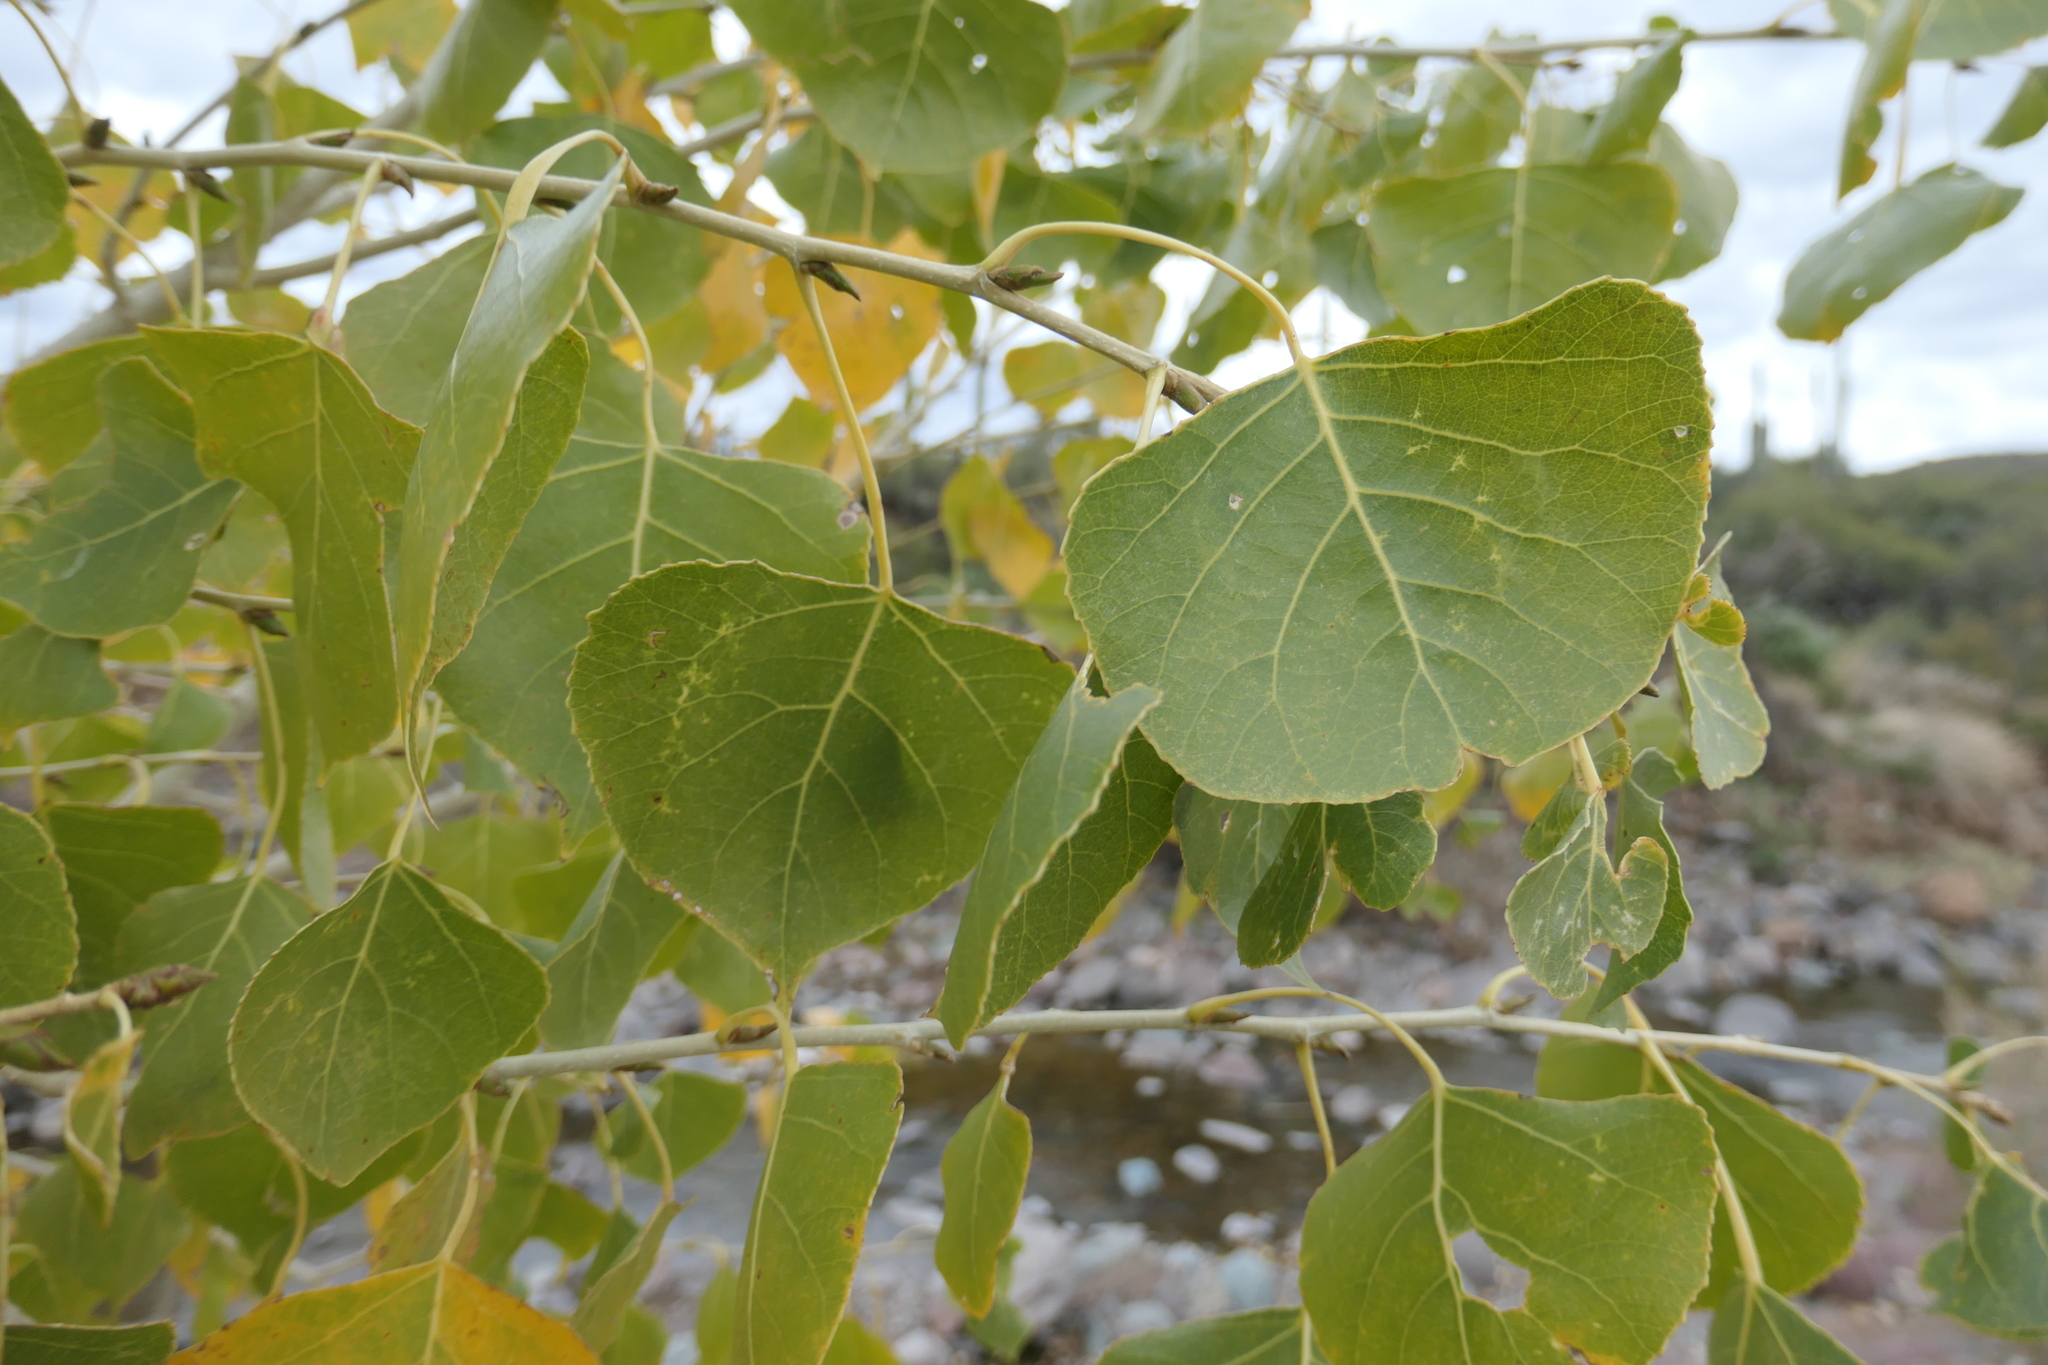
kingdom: Plantae
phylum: Tracheophyta
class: Magnoliopsida
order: Malpighiales
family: Salicaceae
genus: Populus
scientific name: Populus fremontii
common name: Fremont's cottonwood
